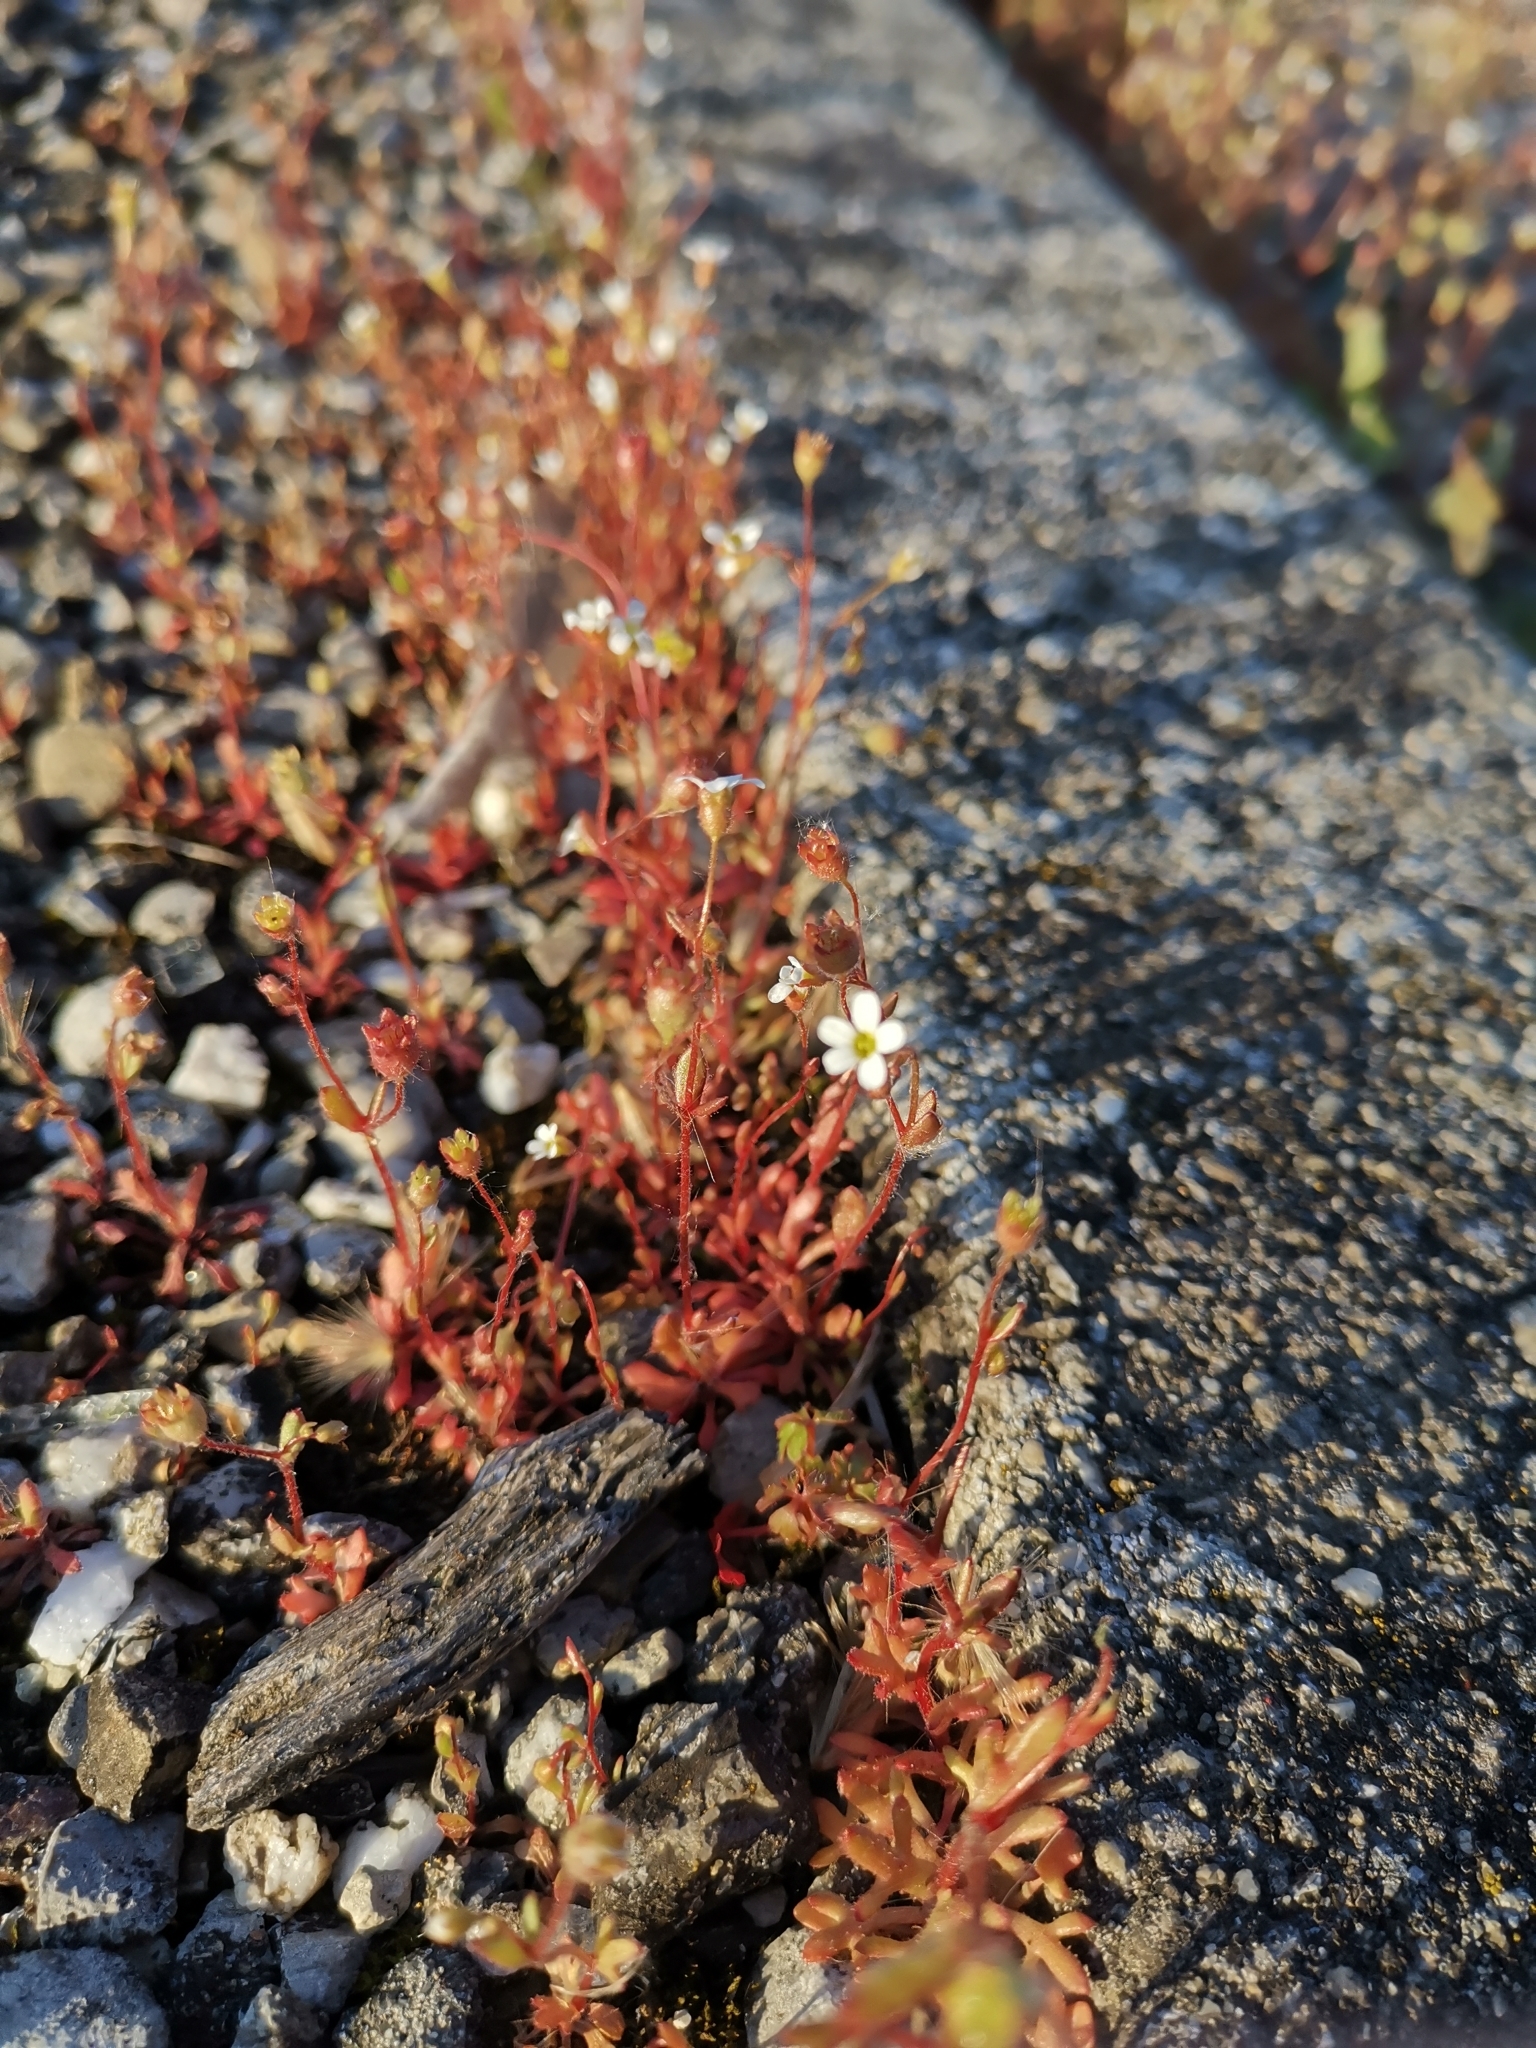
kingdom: Plantae
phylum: Tracheophyta
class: Magnoliopsida
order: Saxifragales
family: Saxifragaceae
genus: Saxifraga
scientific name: Saxifraga tridactylites
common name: Rue-leaved saxifrage
